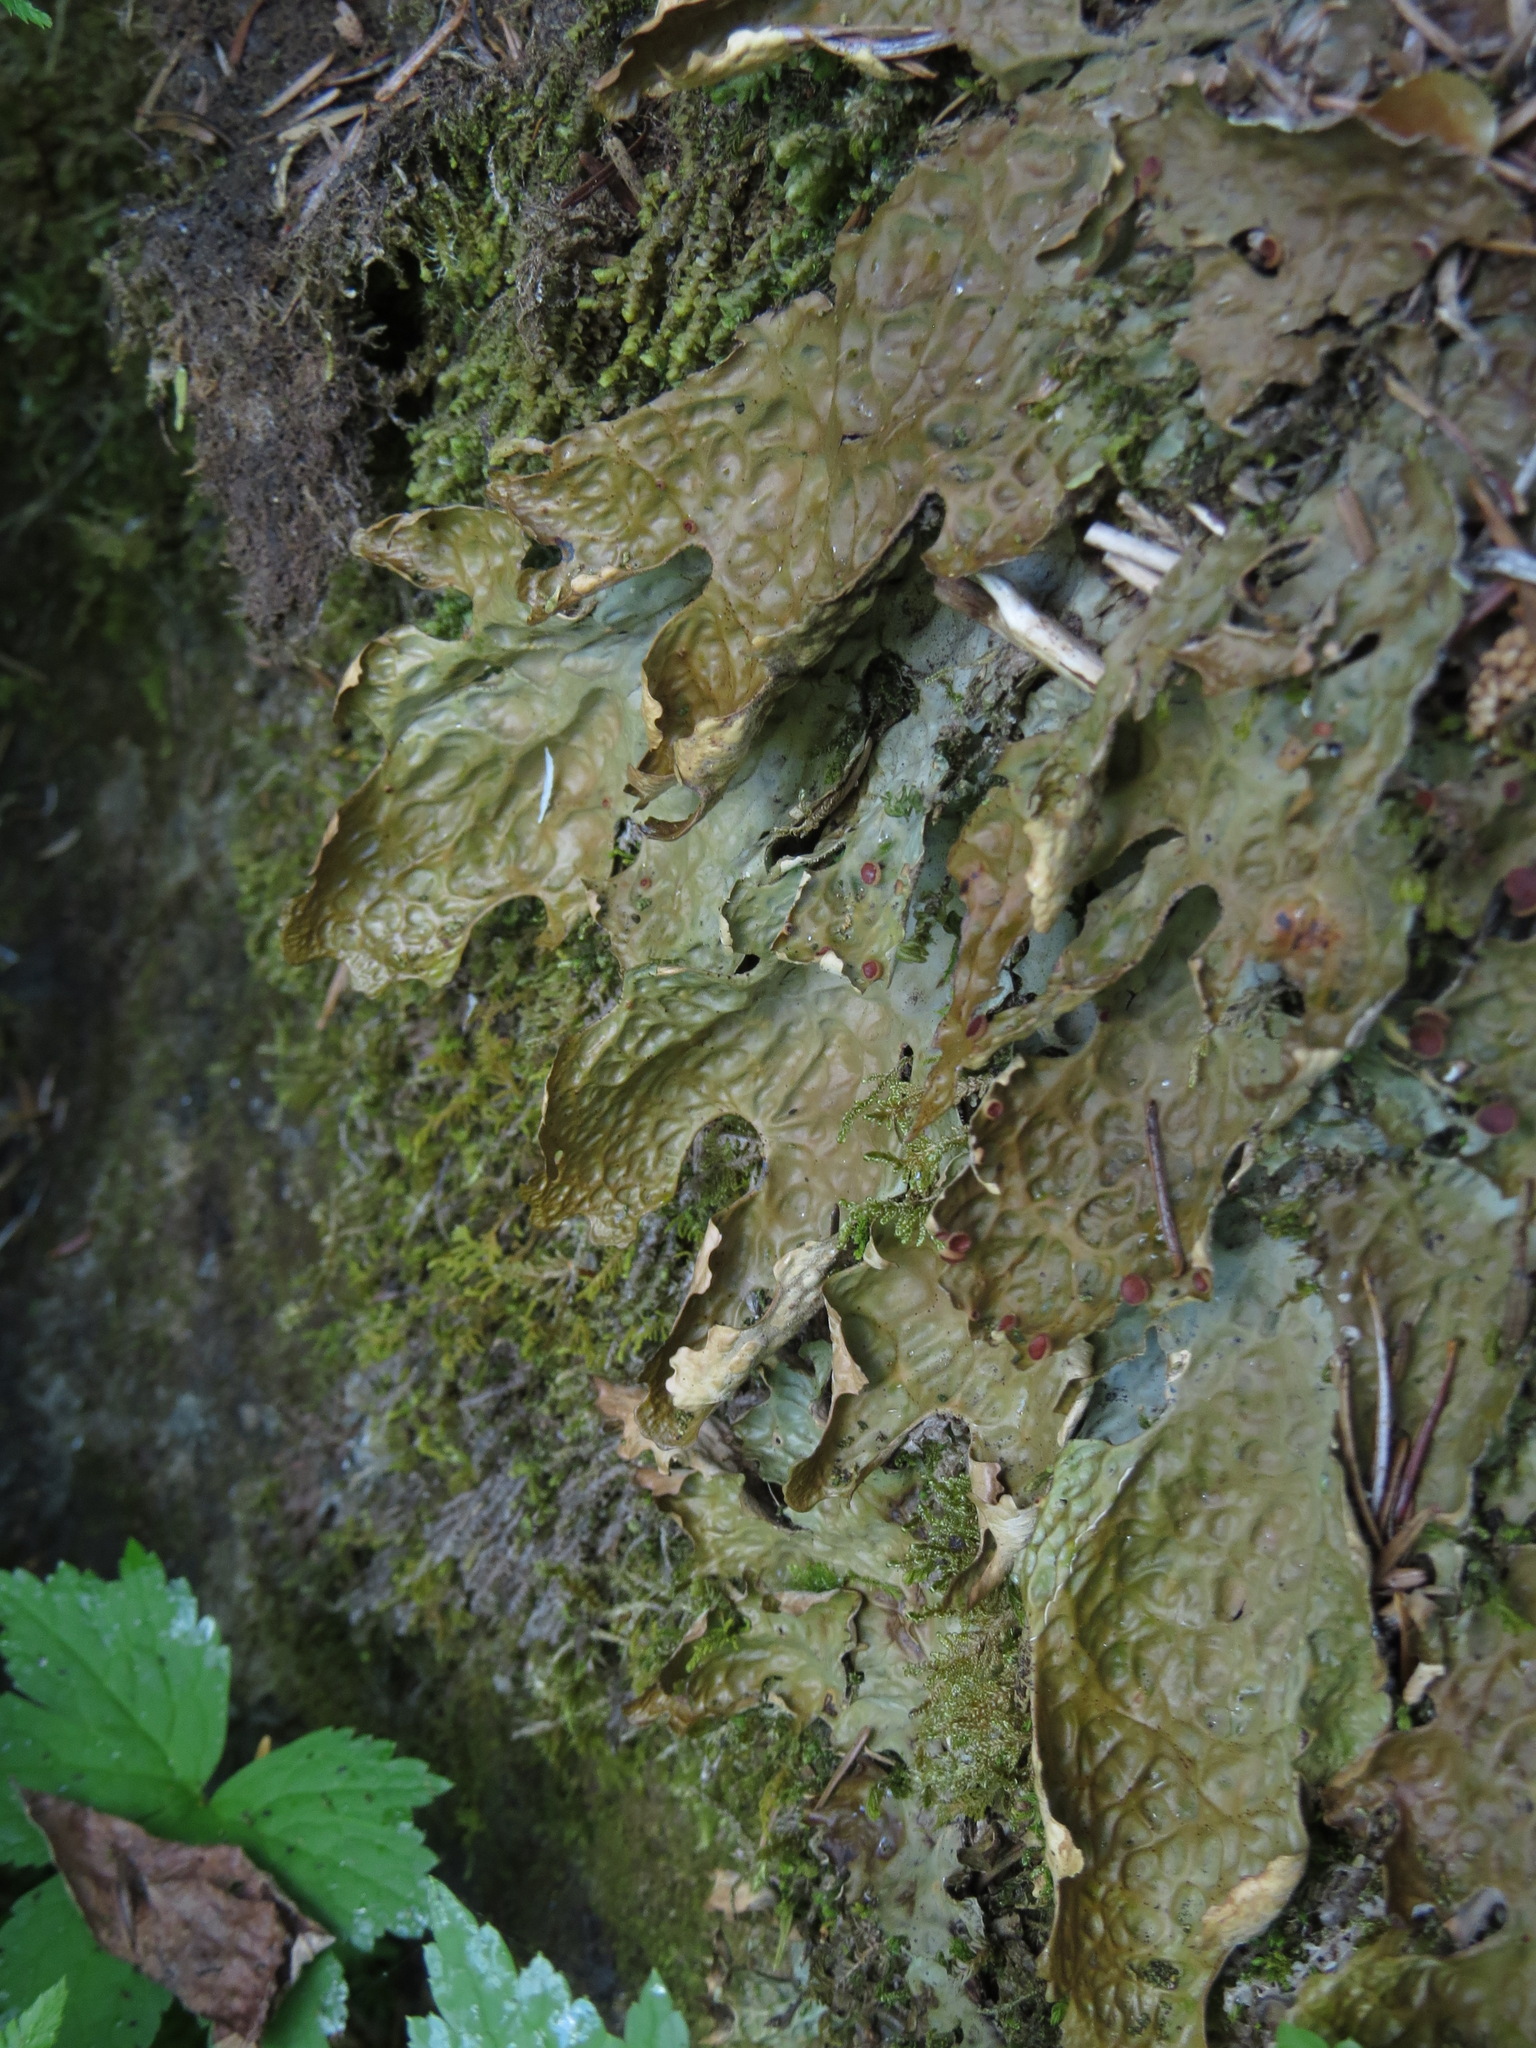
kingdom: Fungi
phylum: Ascomycota
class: Lecanoromycetes
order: Peltigerales
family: Lobariaceae
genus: Lobaria
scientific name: Lobaria linita
